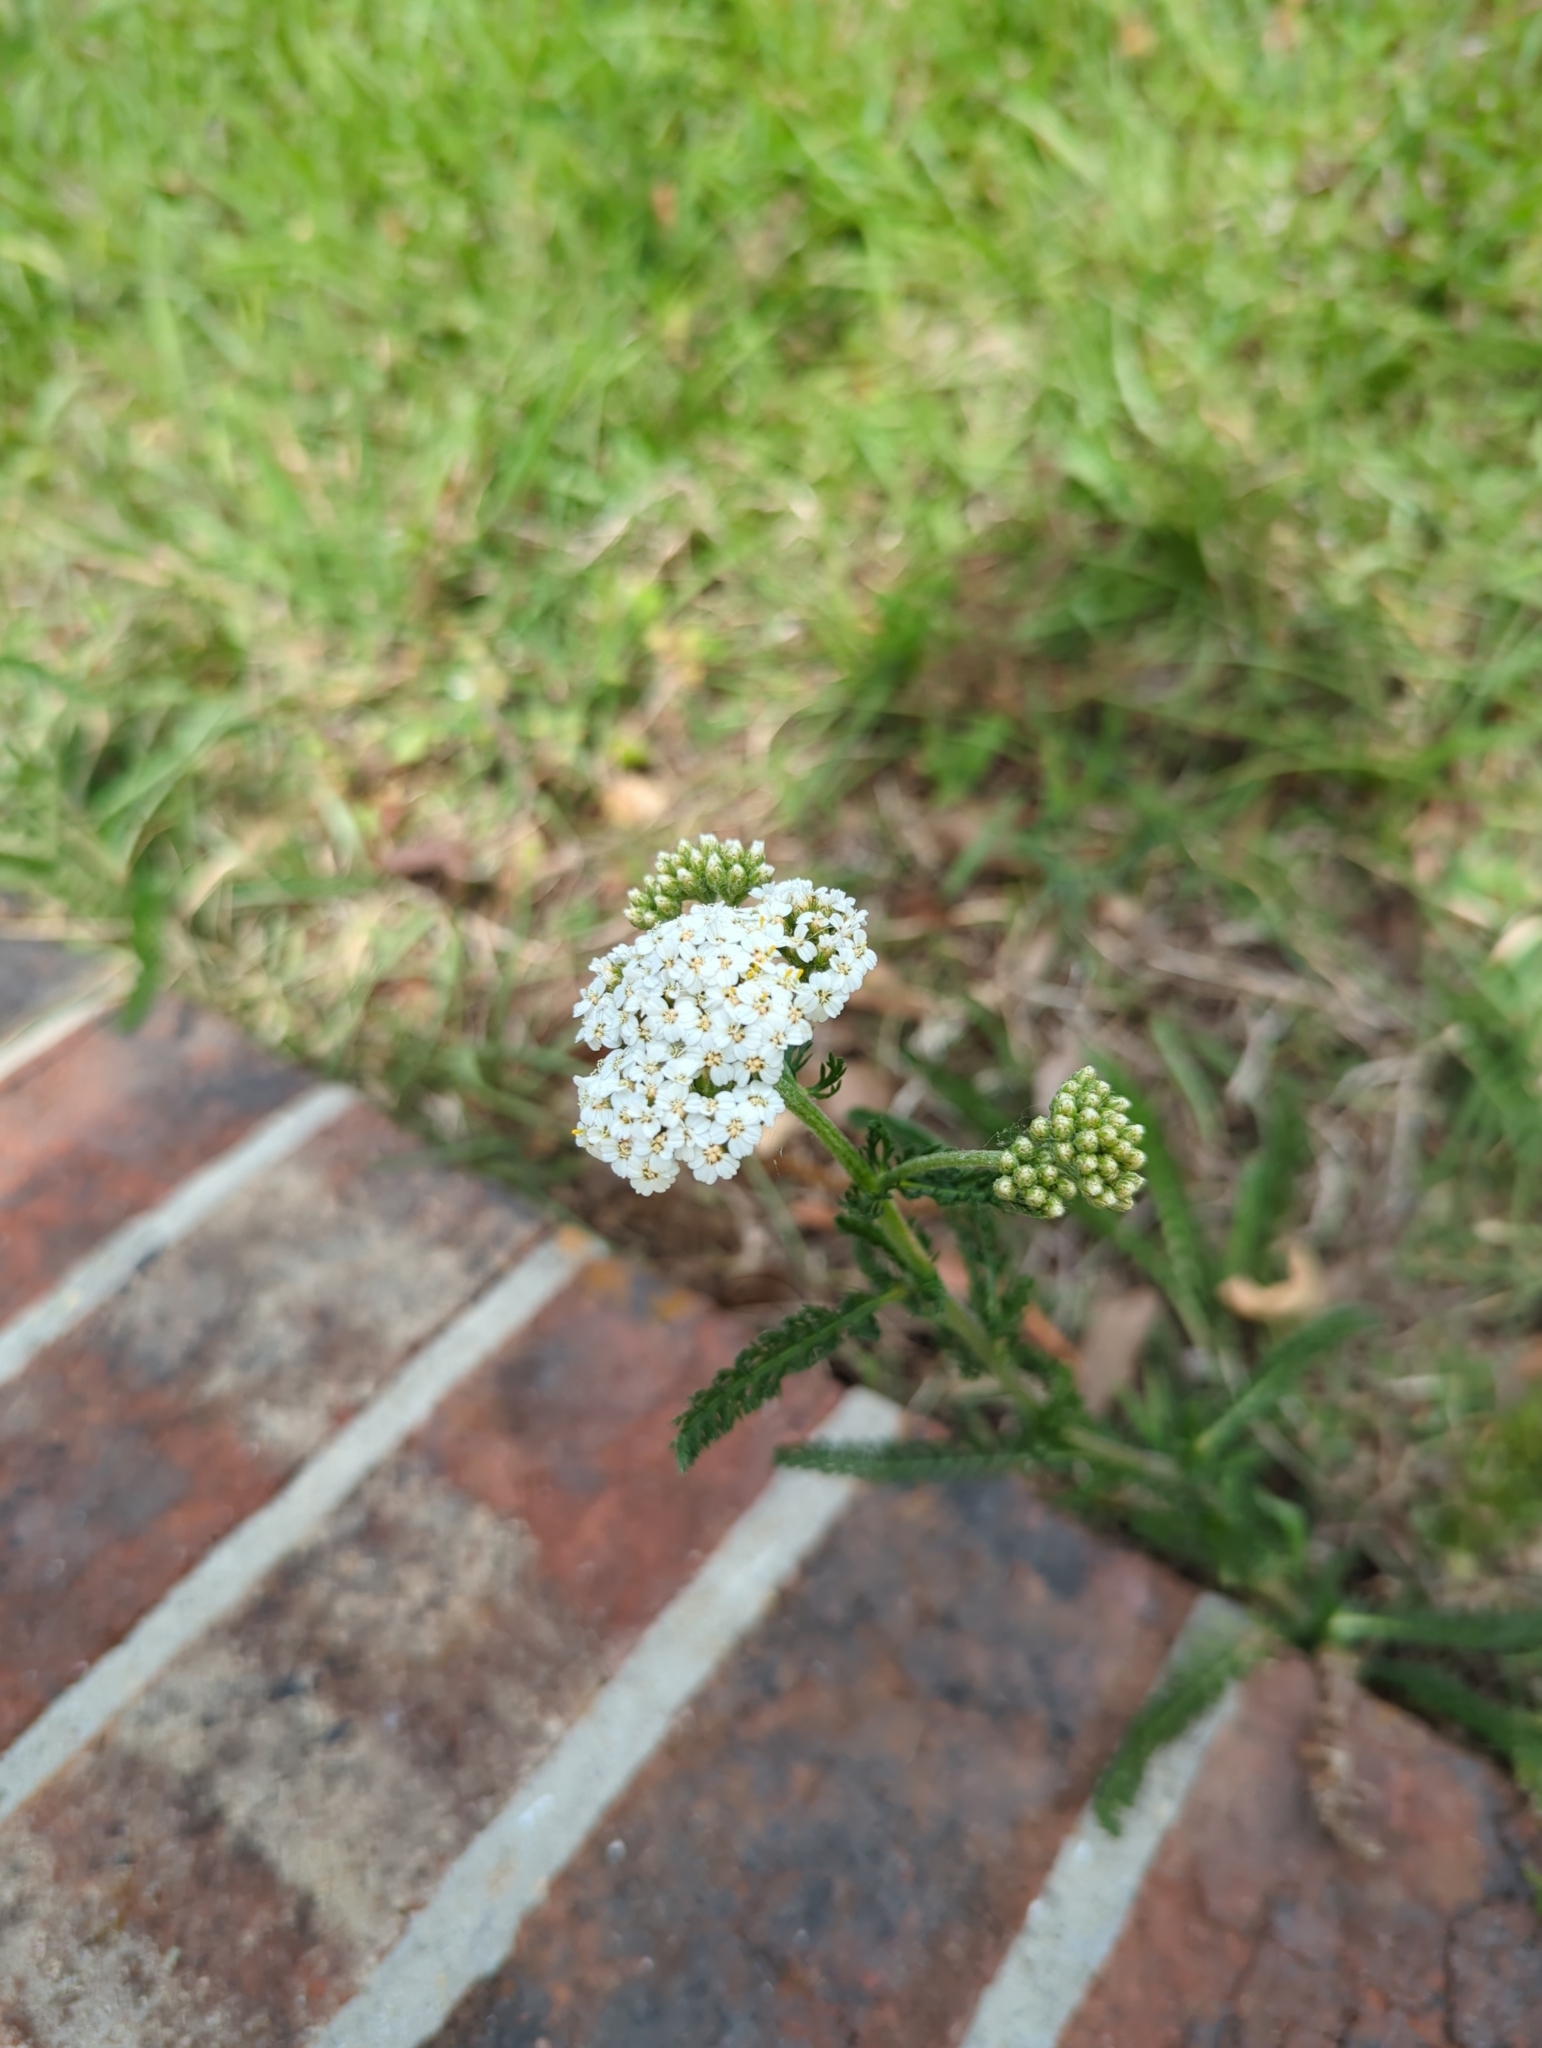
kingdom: Plantae
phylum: Tracheophyta
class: Magnoliopsida
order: Asterales
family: Asteraceae
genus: Achillea
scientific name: Achillea millefolium
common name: Yarrow
